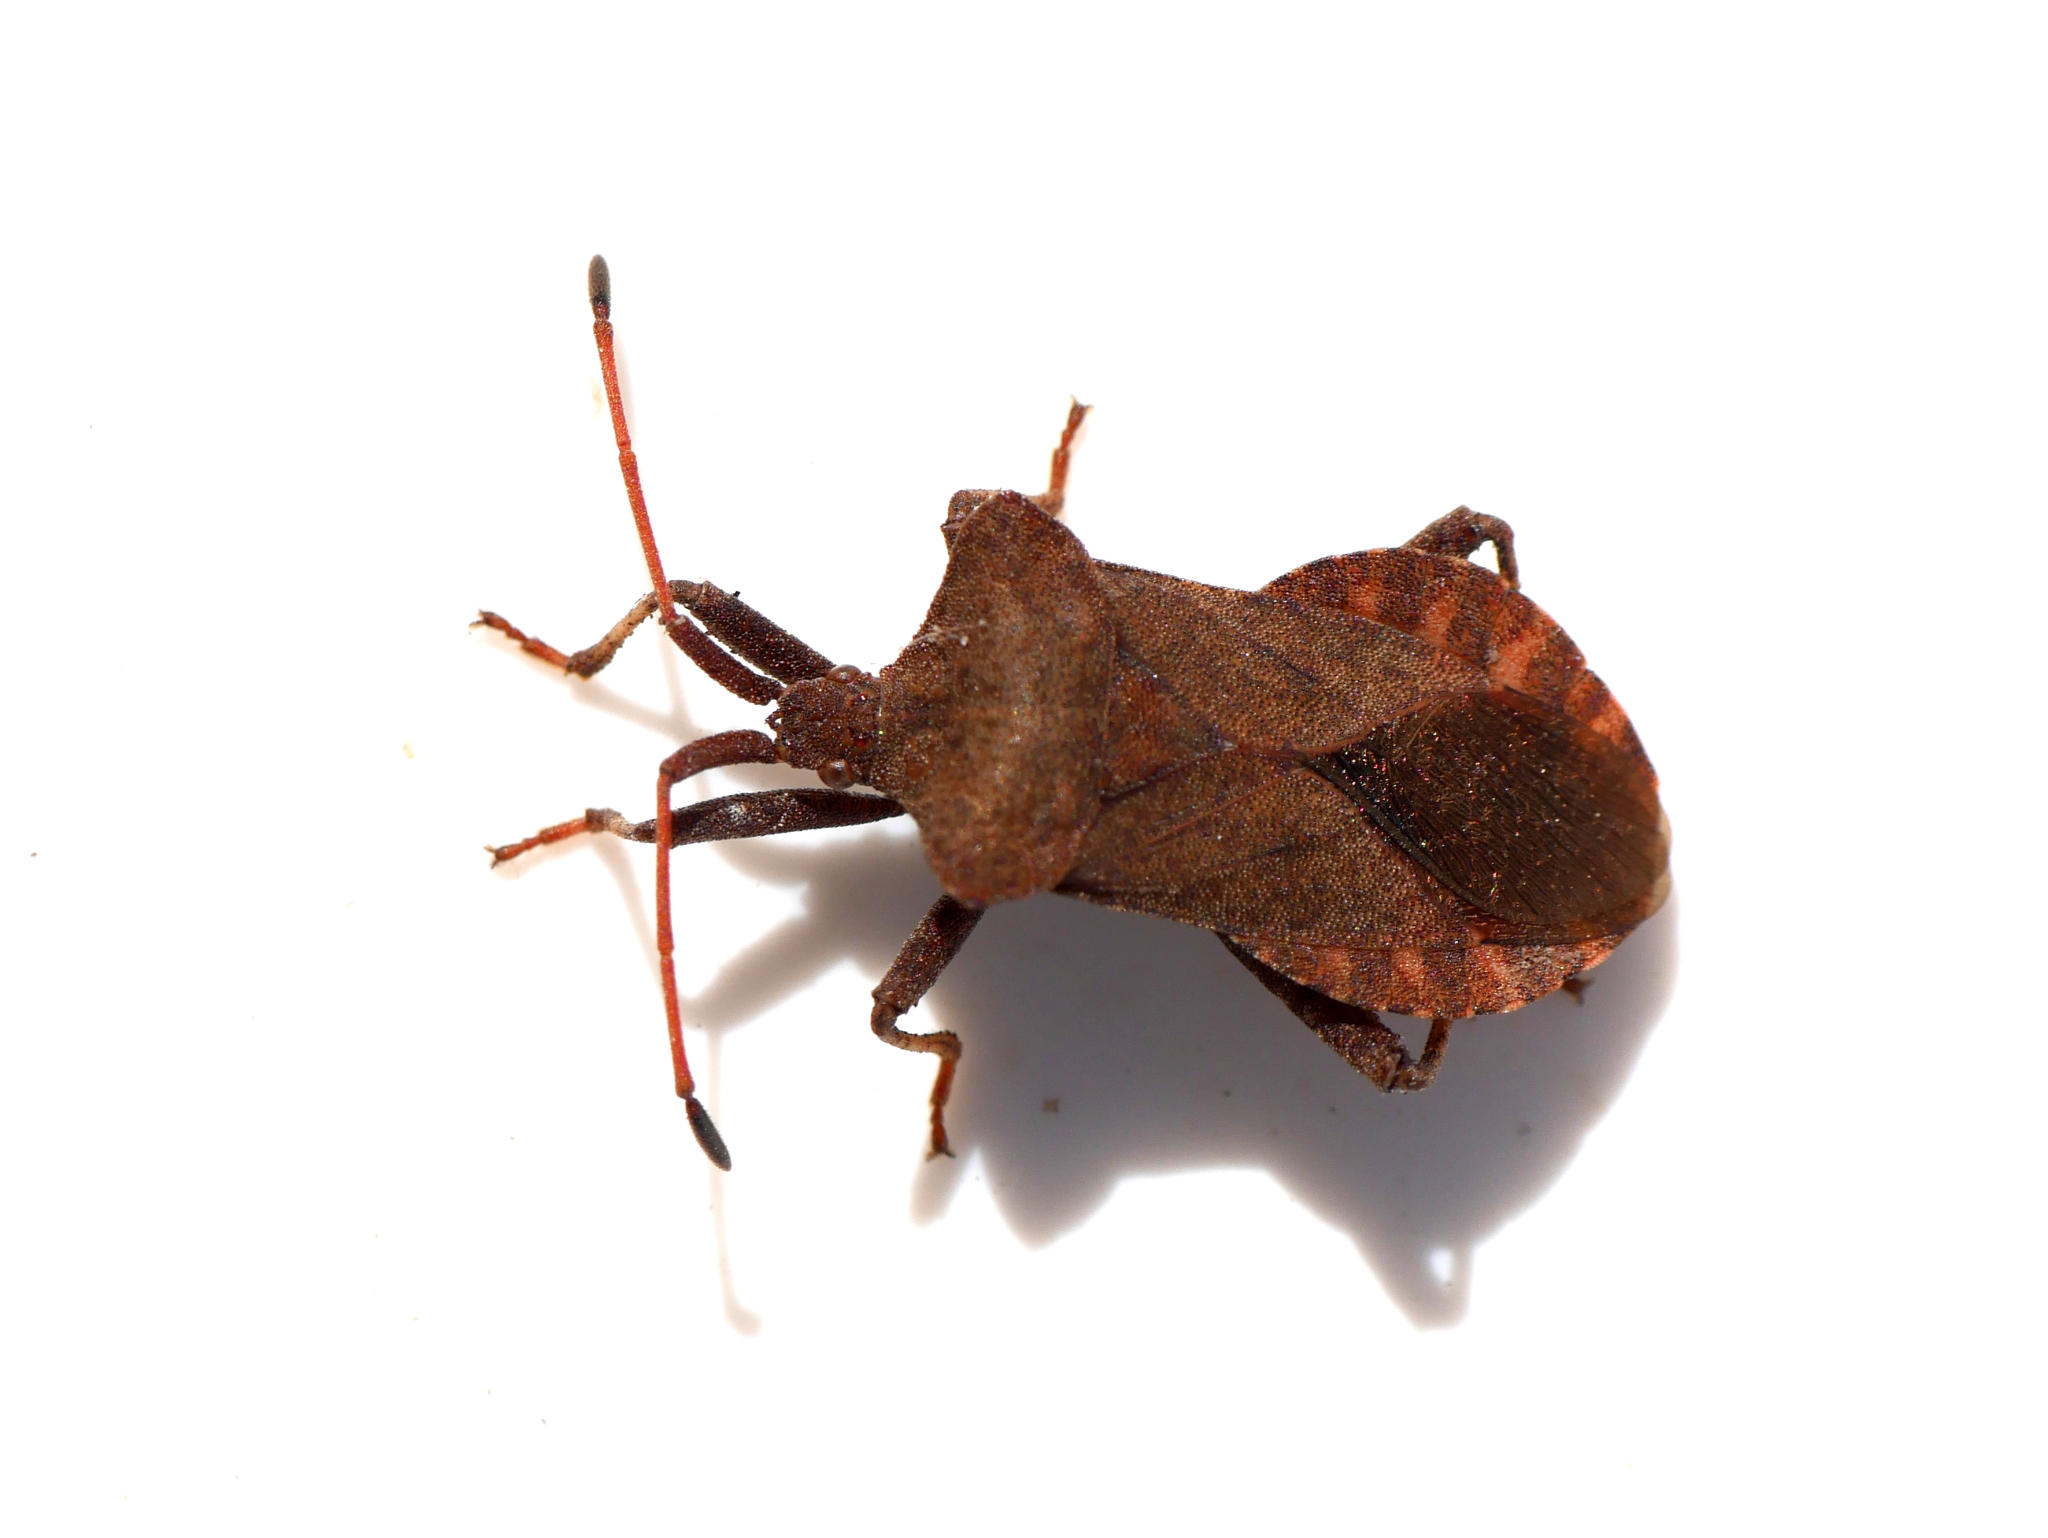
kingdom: Animalia
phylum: Arthropoda
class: Insecta
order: Hemiptera
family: Coreidae
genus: Coreus
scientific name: Coreus marginatus
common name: Dock bug
